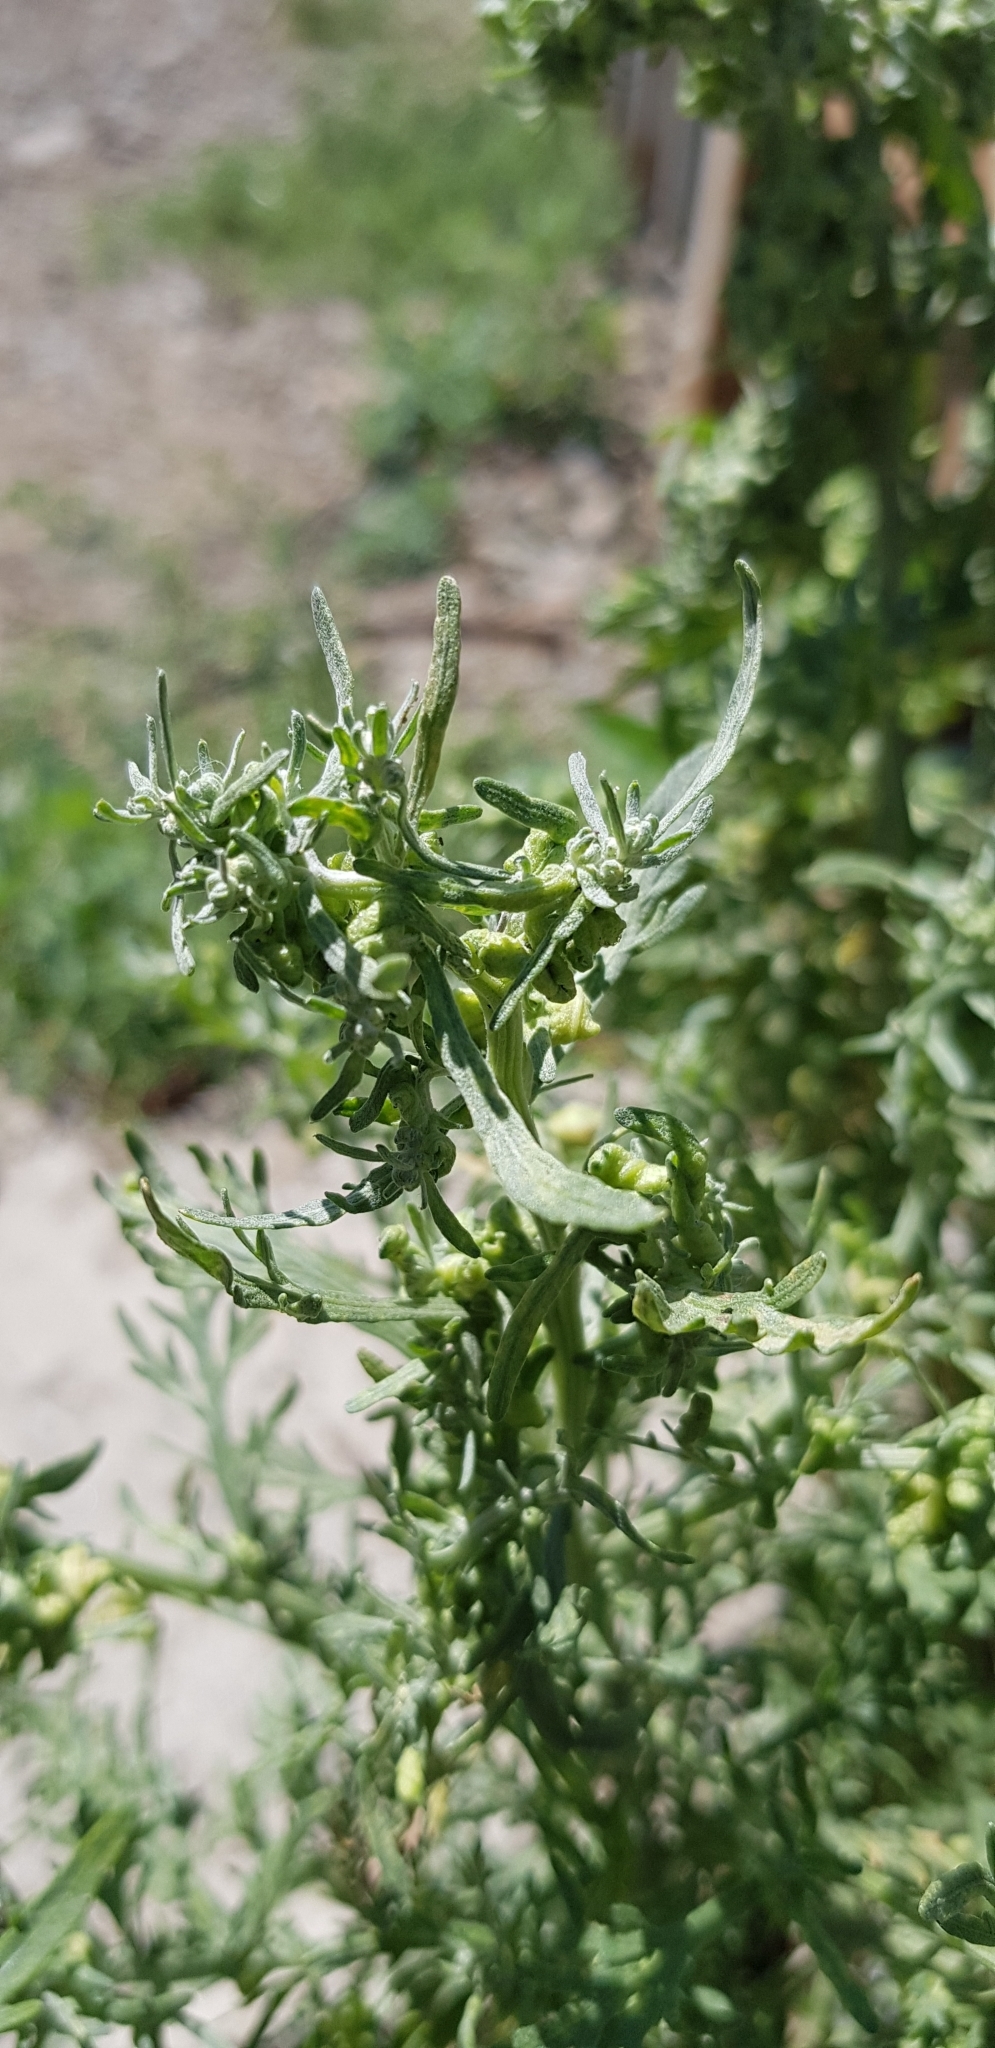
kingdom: Plantae
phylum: Tracheophyta
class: Magnoliopsida
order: Asterales
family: Asteraceae
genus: Artemisia
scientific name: Artemisia sieversiana
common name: Sieversian wormwood
